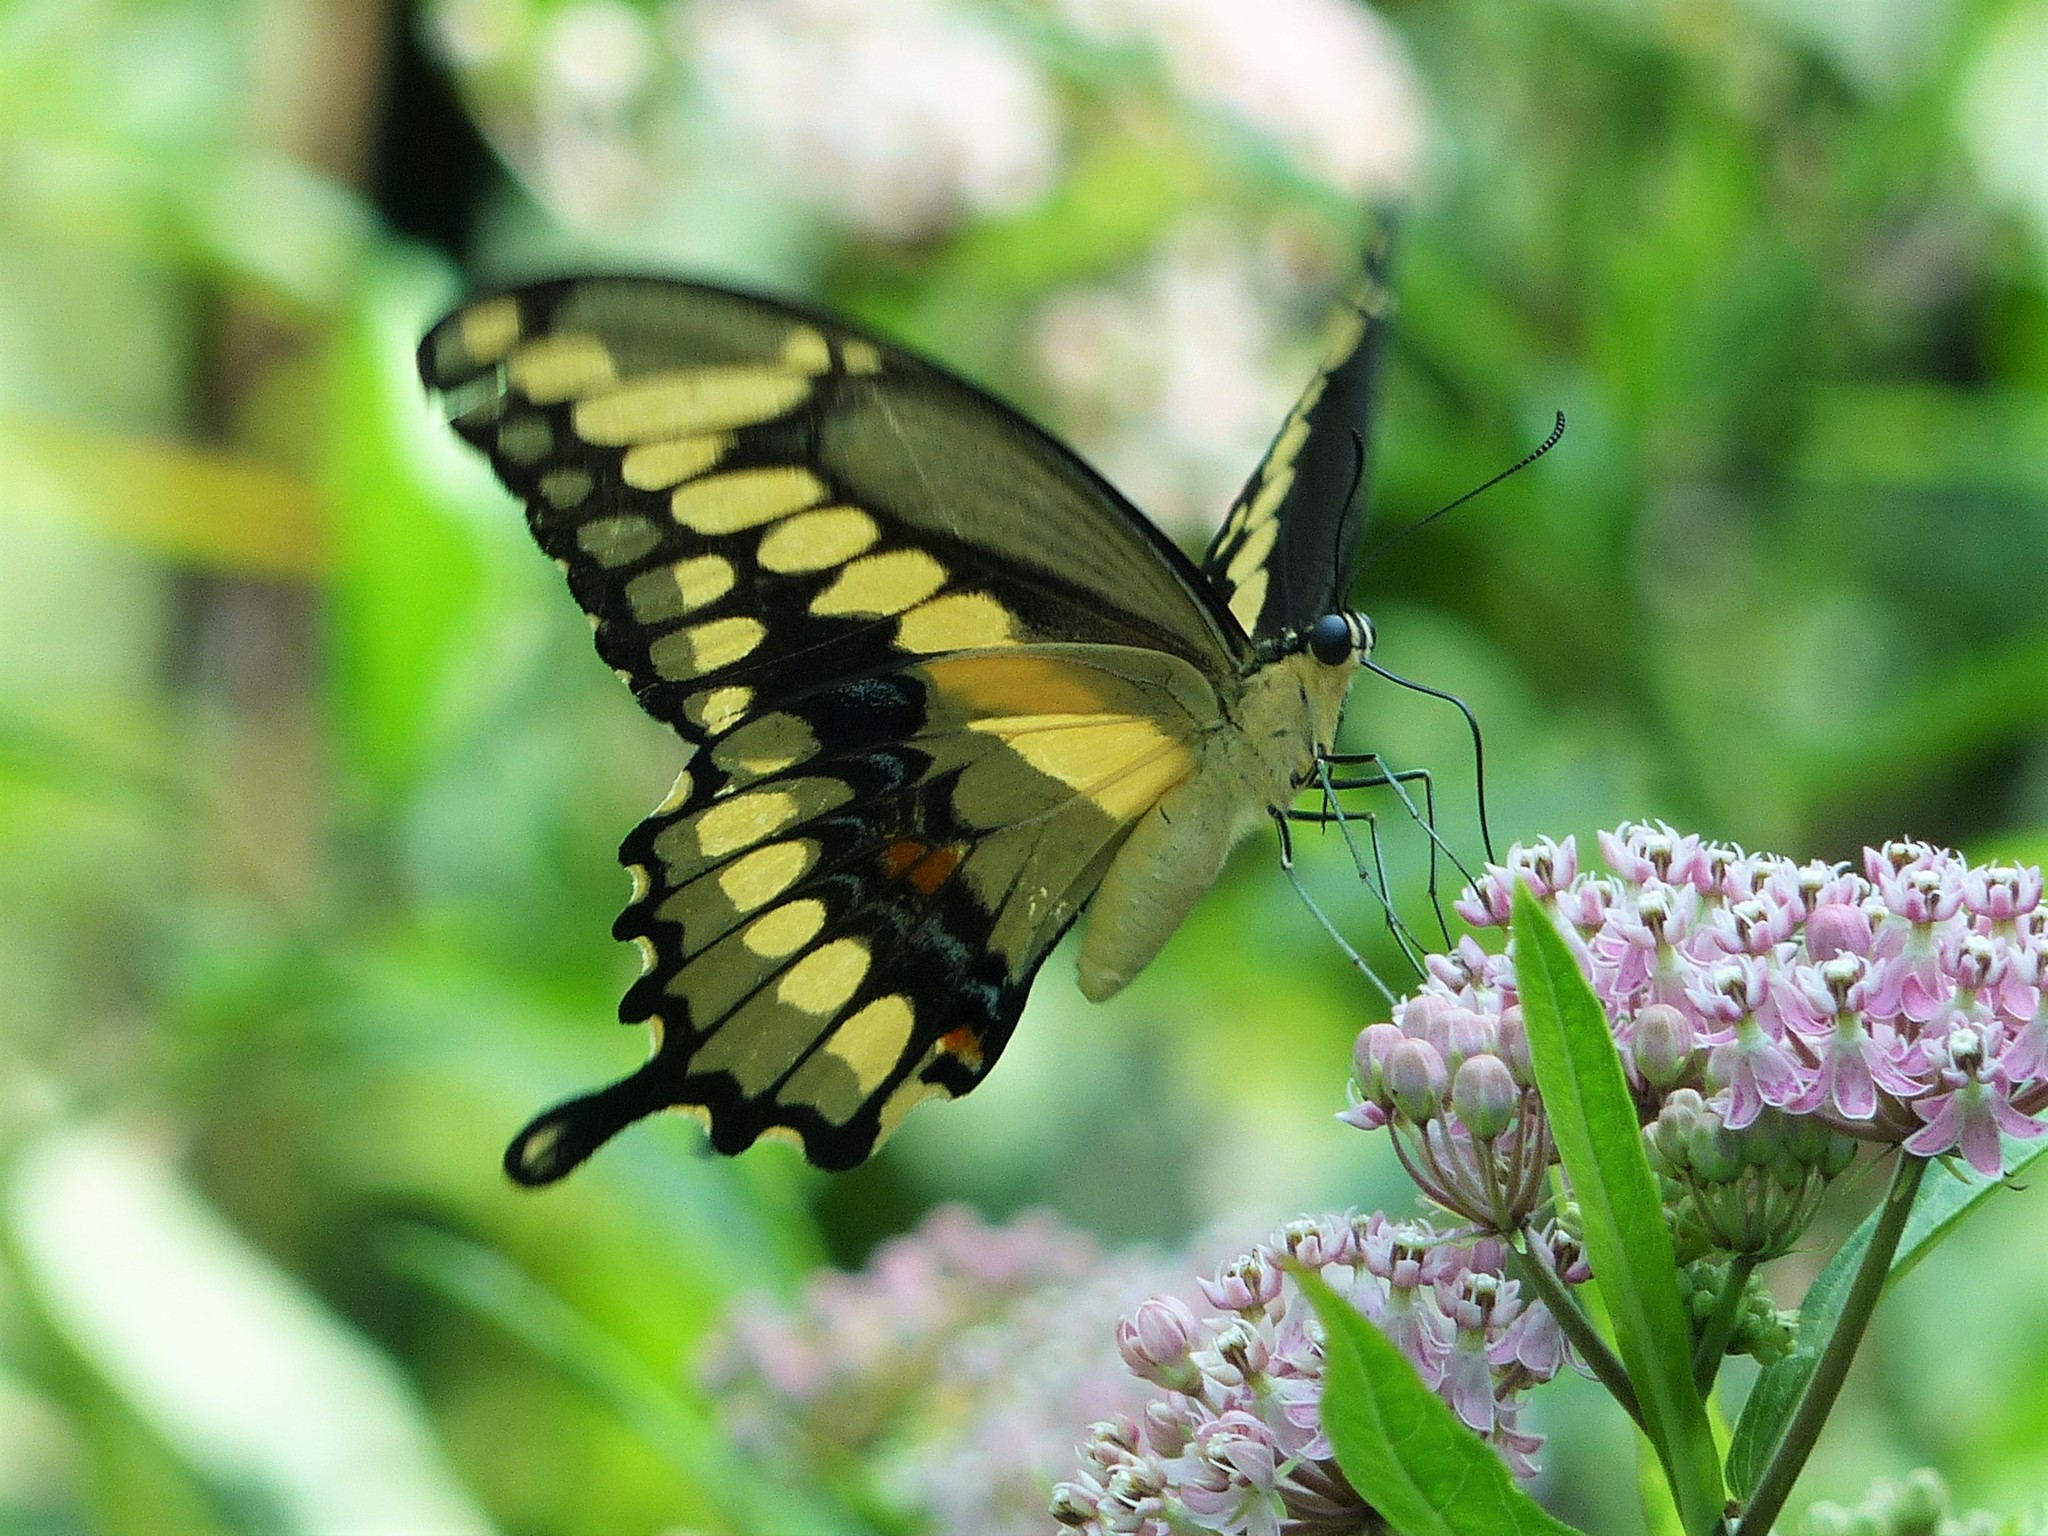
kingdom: Animalia
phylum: Arthropoda
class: Insecta
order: Lepidoptera
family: Papilionidae
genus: Papilio
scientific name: Papilio cresphontes
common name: Giant swallowtail
